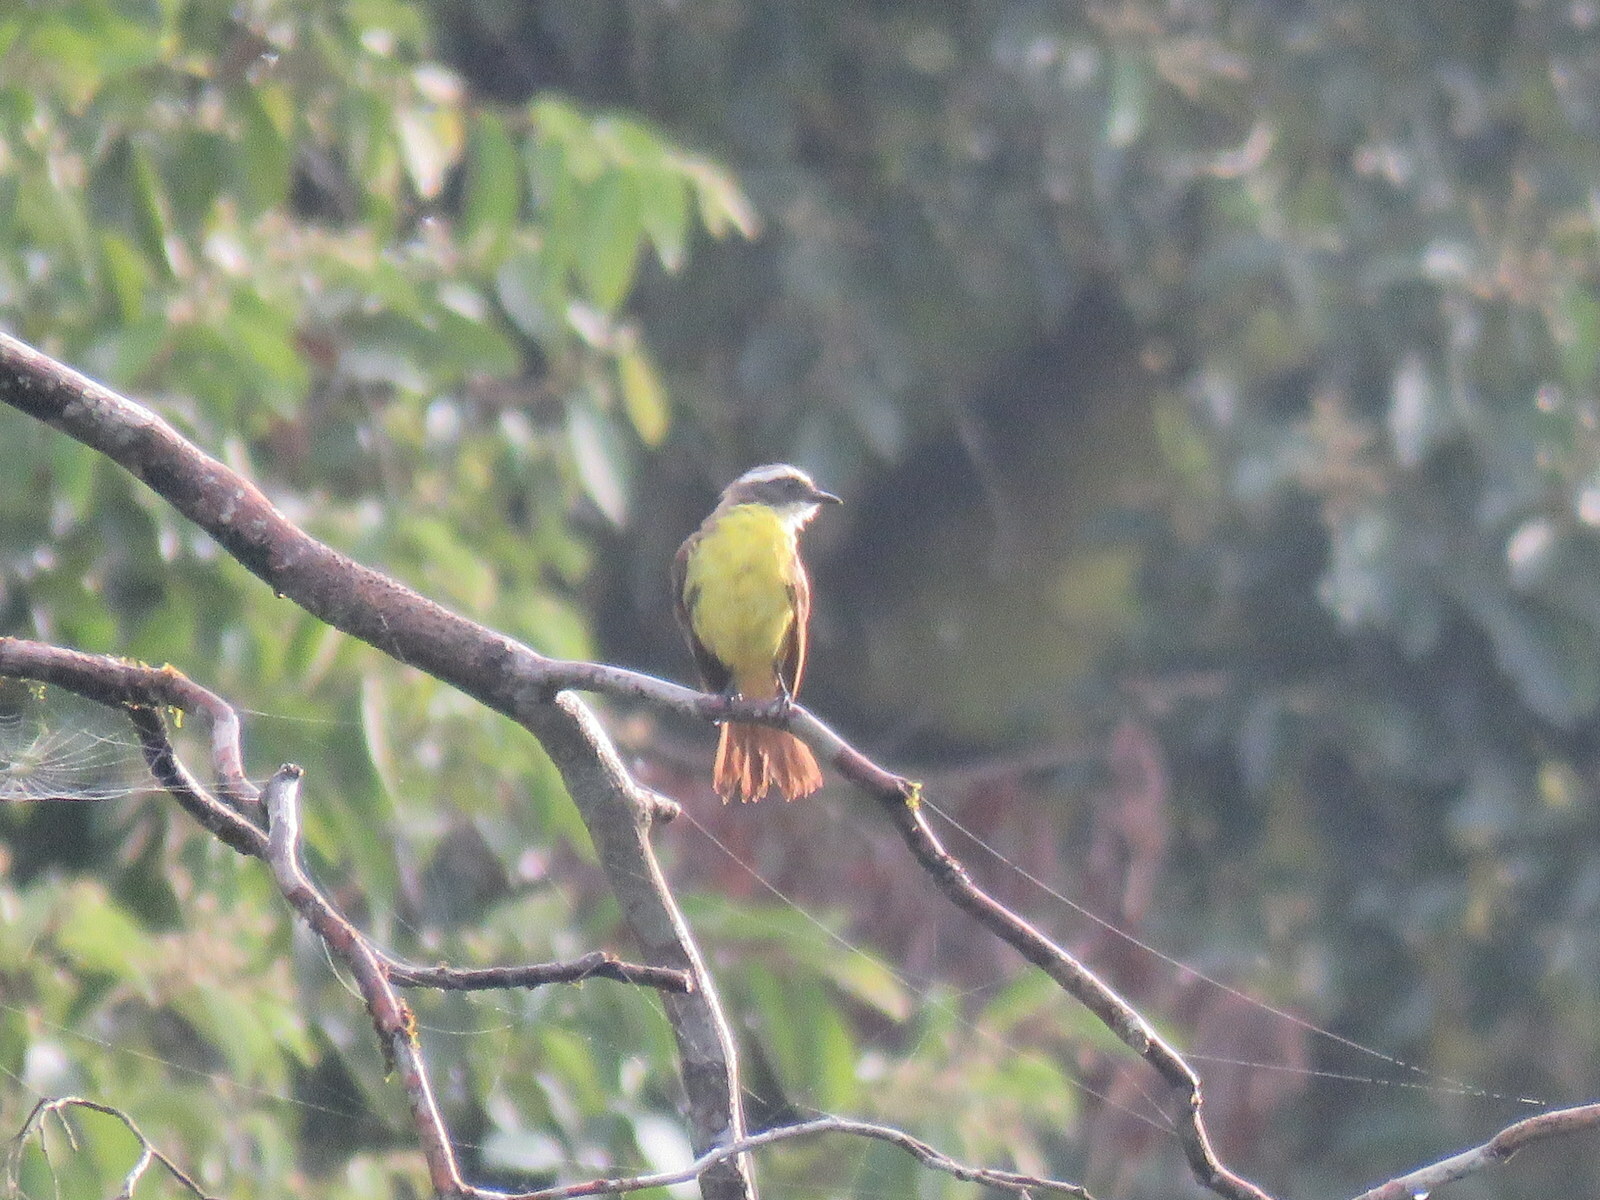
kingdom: Animalia
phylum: Chordata
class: Aves
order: Passeriformes
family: Tyrannidae
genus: Myiozetetes
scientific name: Myiozetetes similis
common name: Social flycatcher
